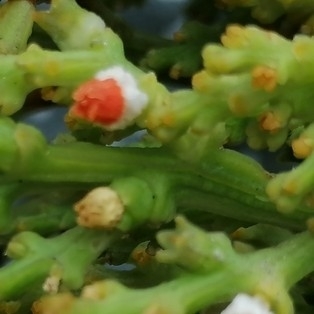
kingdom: Plantae
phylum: Tracheophyta
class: Magnoliopsida
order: Santalales
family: Thesiaceae
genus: Thesium
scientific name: Thesium fragile
